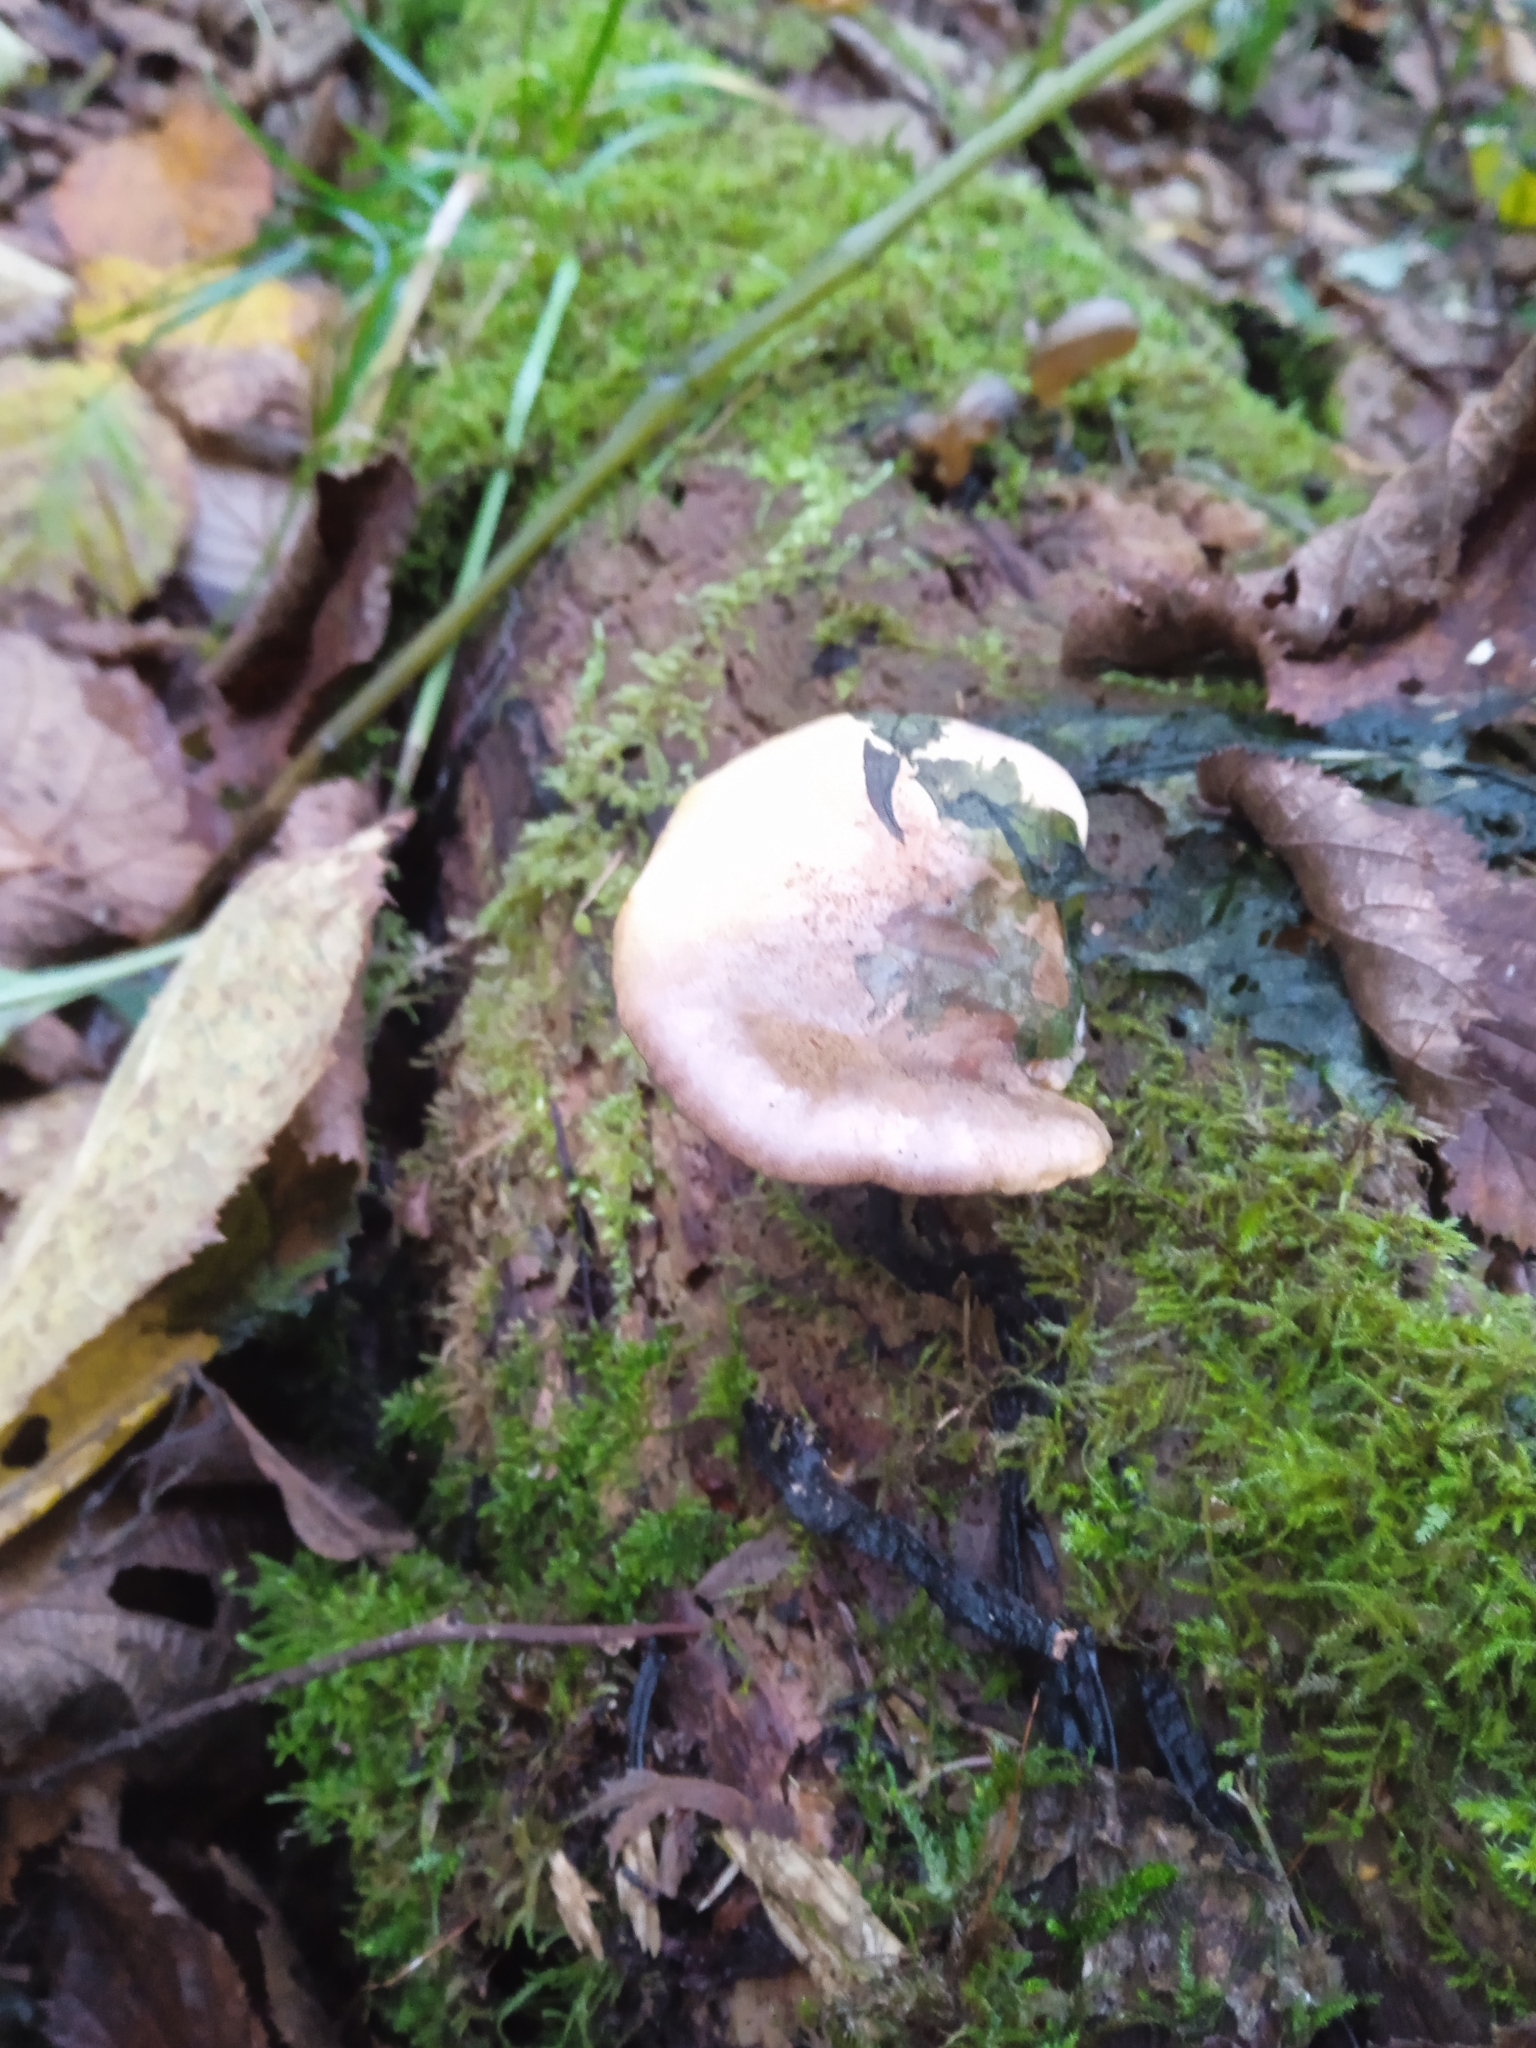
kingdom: Fungi
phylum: Basidiomycota
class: Agaricomycetes
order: Agaricales
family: Sarcomyxaceae
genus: Sarcomyxa
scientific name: Sarcomyxa serotina
